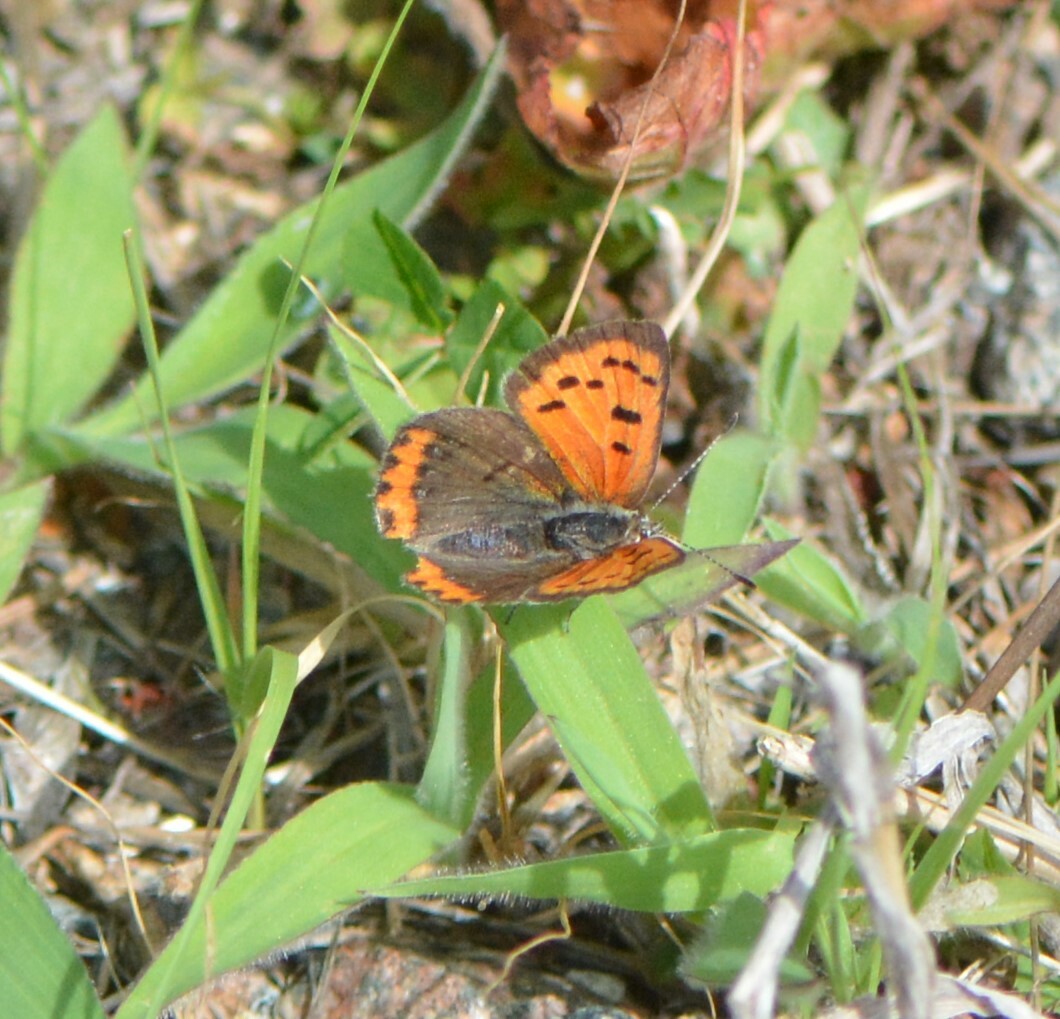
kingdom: Animalia
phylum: Arthropoda
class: Insecta
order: Lepidoptera
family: Lycaenidae
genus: Lycaena
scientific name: Lycaena hypophlaeas
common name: American copper
